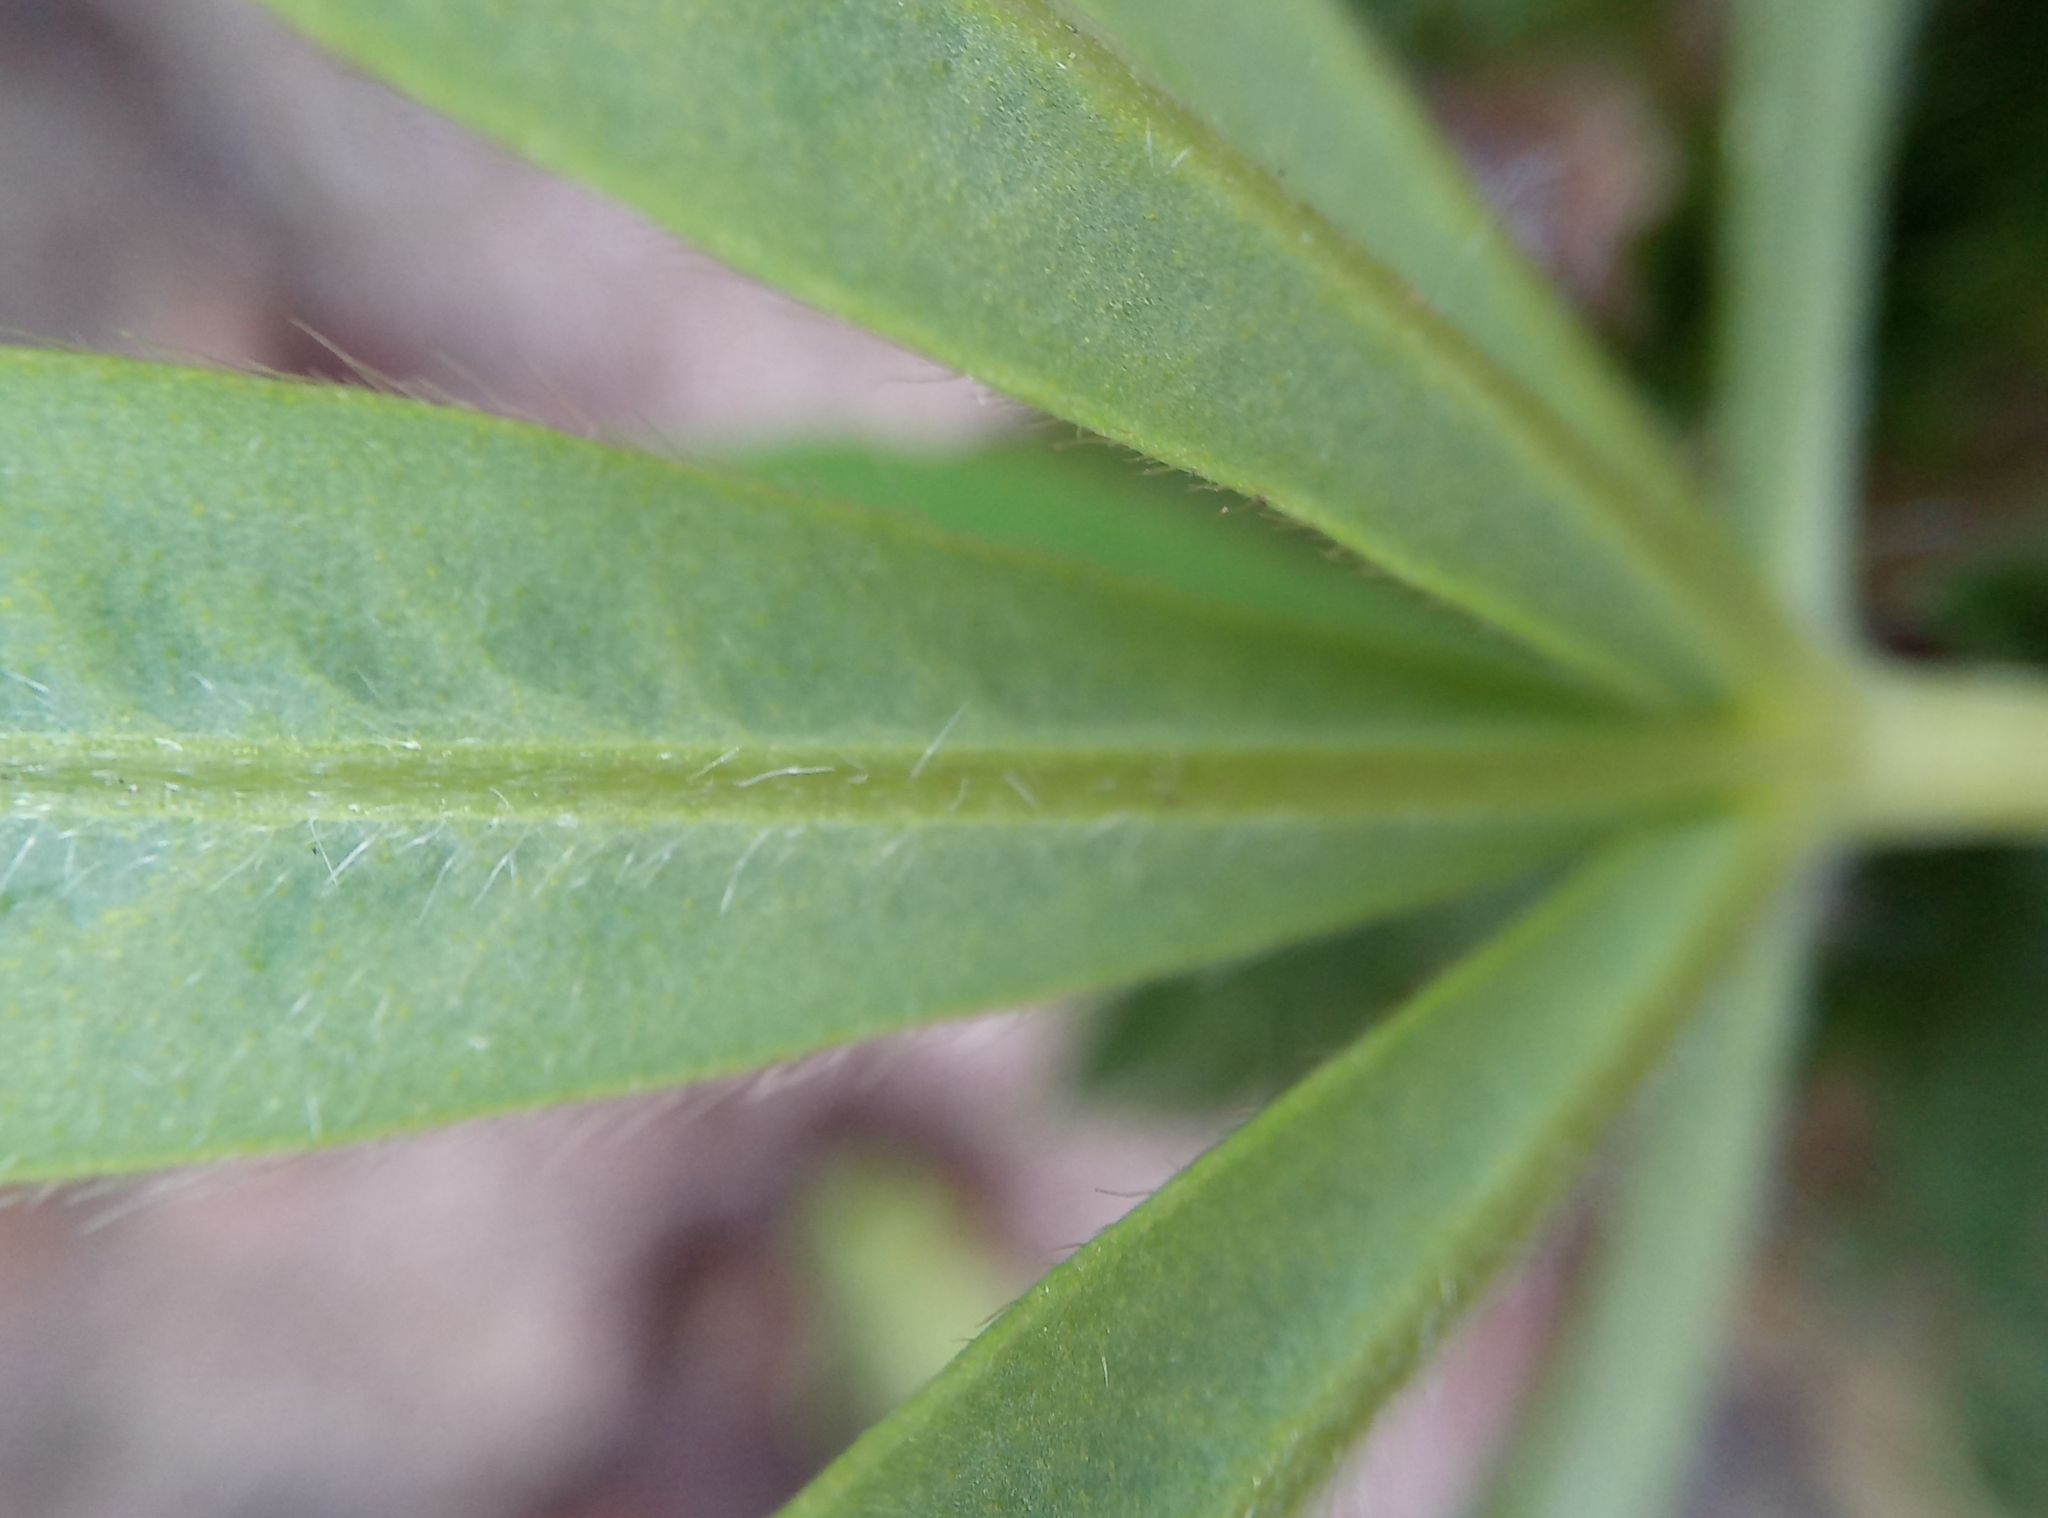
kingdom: Plantae
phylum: Tracheophyta
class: Magnoliopsida
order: Fabales
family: Fabaceae
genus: Lupinus
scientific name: Lupinus polyphyllus
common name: Garden lupin
